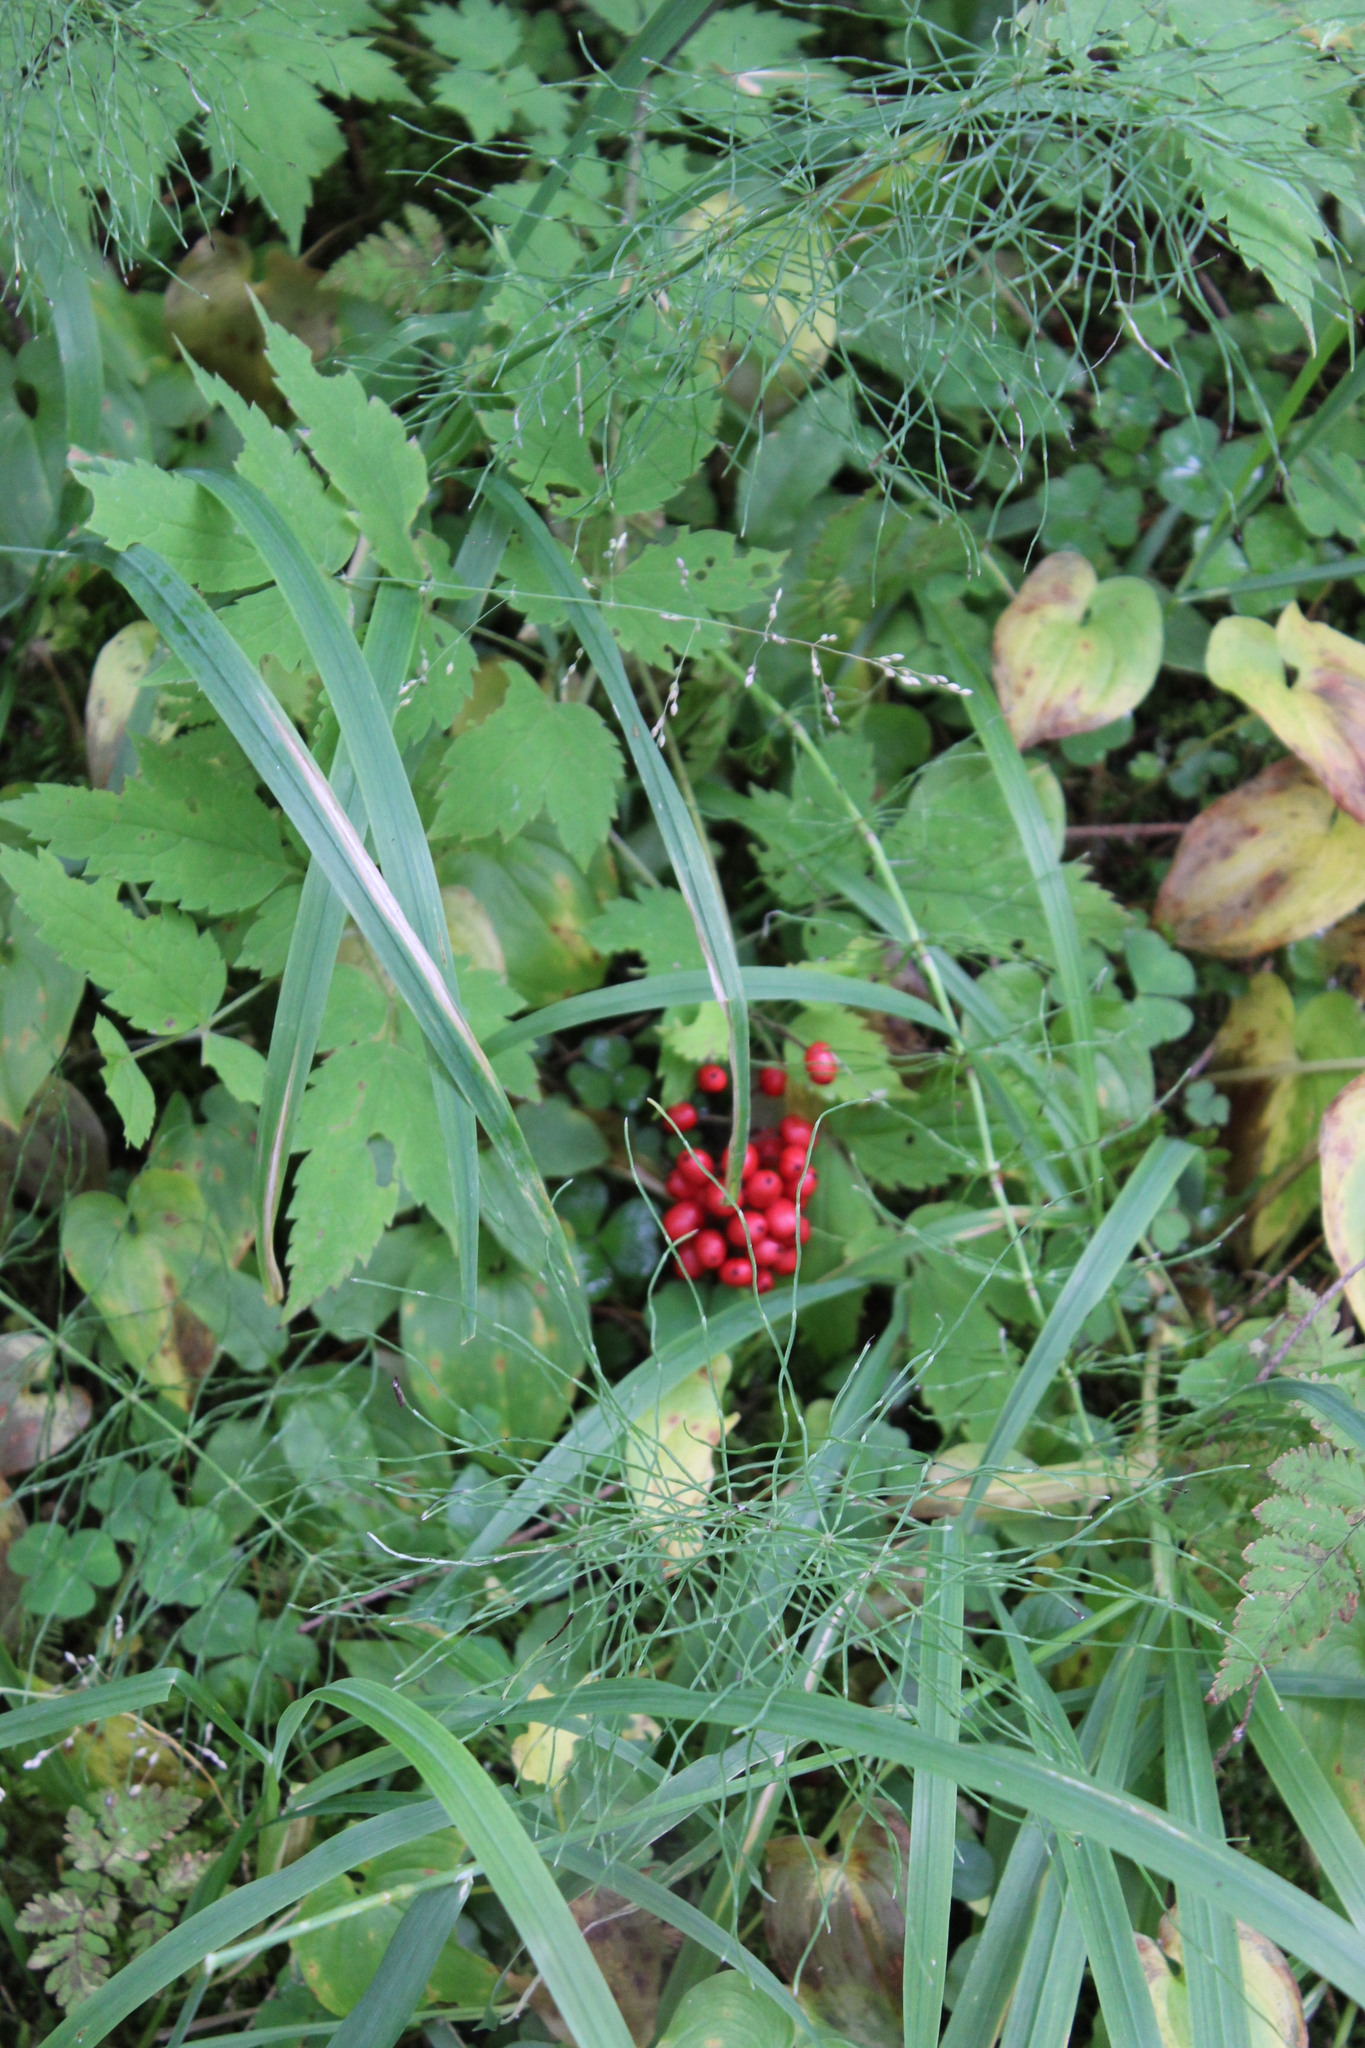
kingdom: Plantae
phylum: Tracheophyta
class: Magnoliopsida
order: Ranunculales
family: Ranunculaceae
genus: Actaea
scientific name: Actaea erythrocarpa
